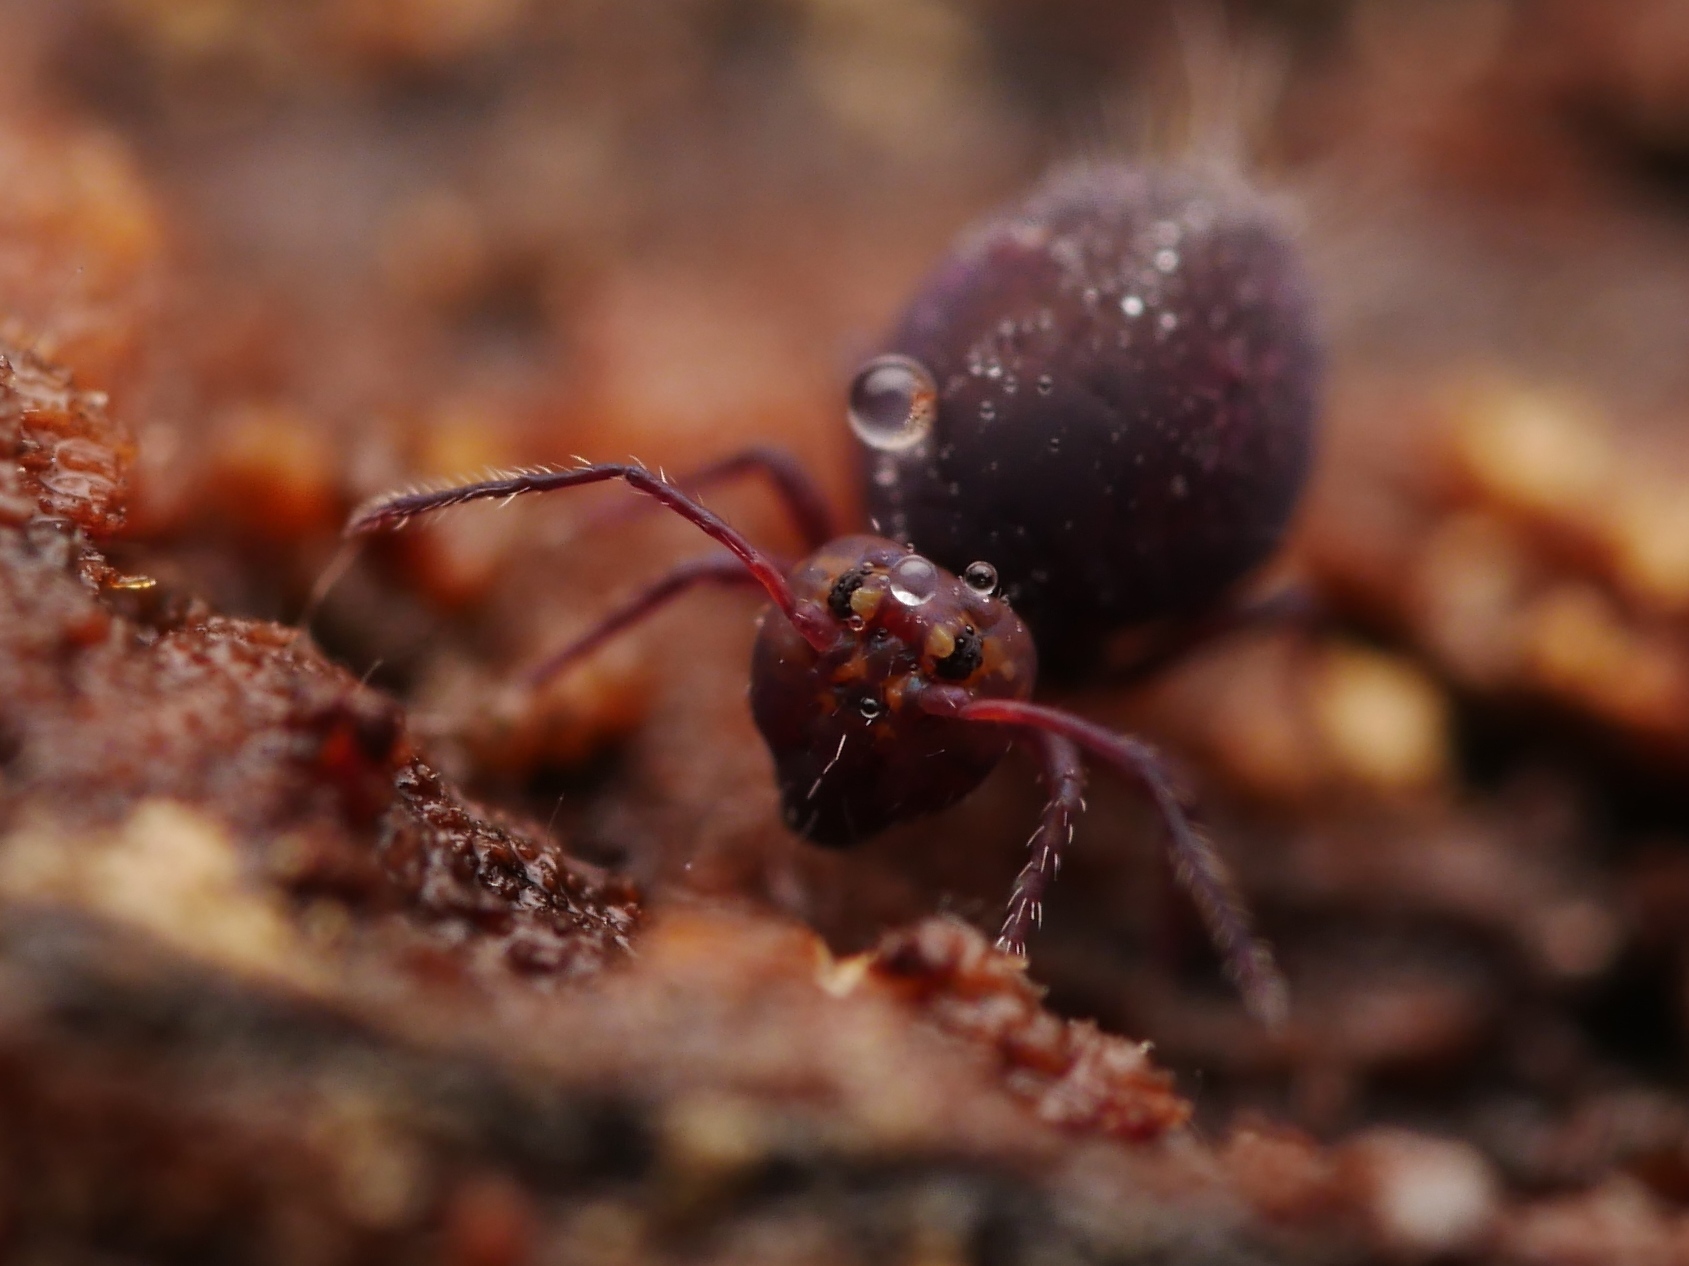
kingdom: Animalia
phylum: Arthropoda
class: Collembola
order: Symphypleona
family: Dicyrtomidae
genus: Dicyrtoma
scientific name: Dicyrtoma fusca
